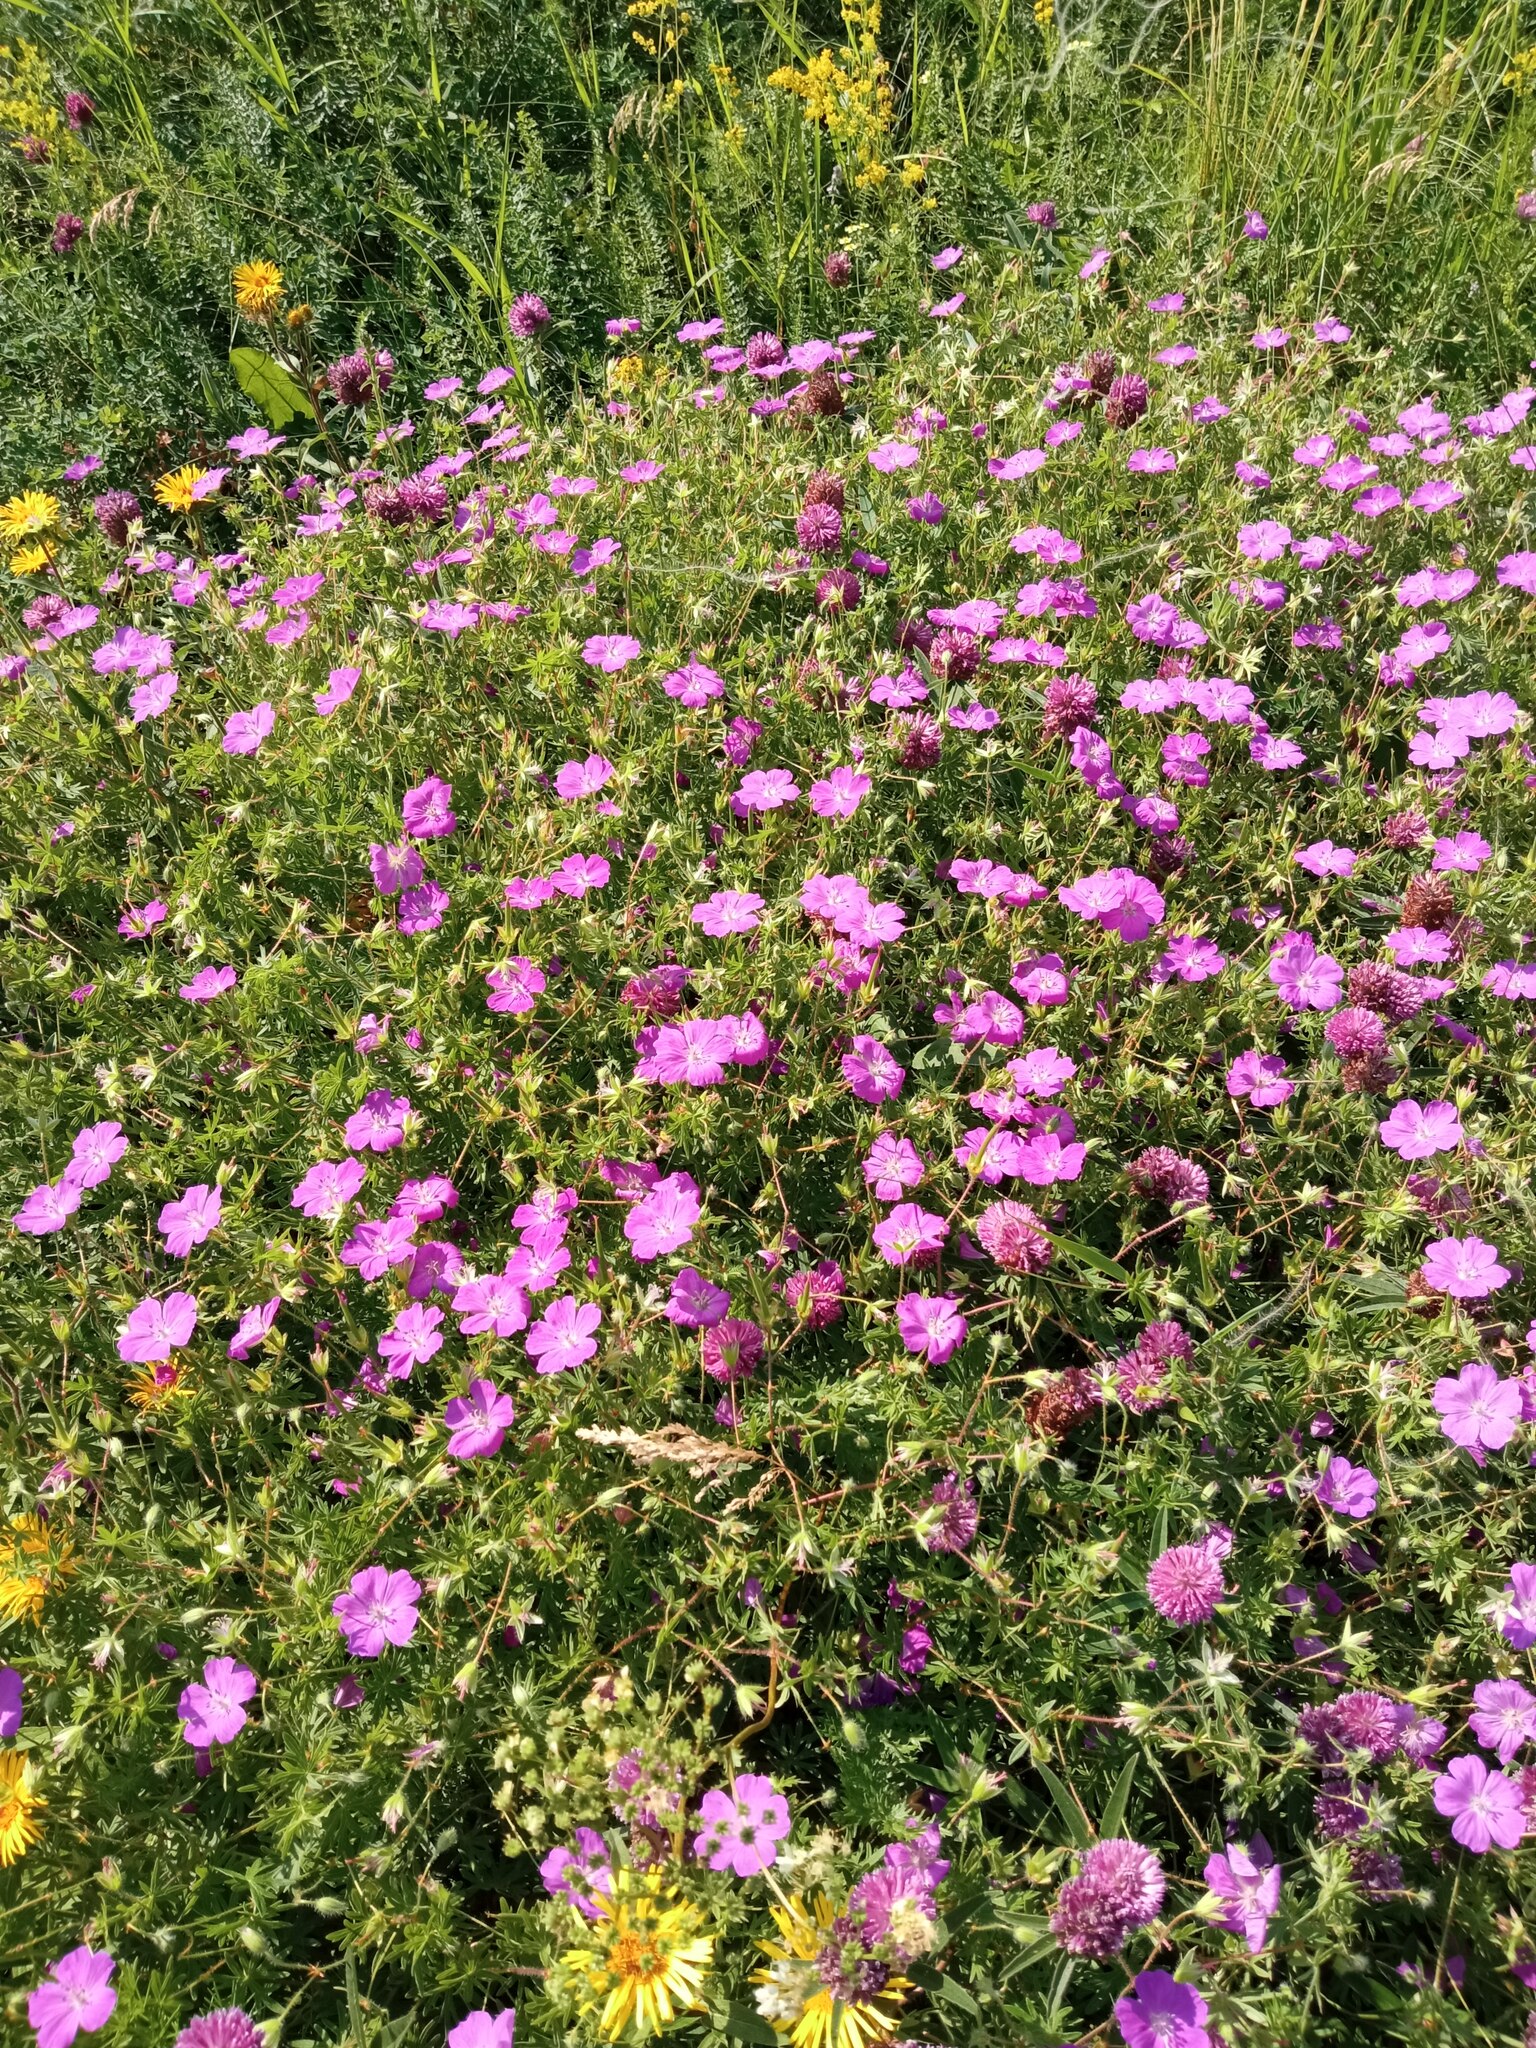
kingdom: Plantae
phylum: Tracheophyta
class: Magnoliopsida
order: Geraniales
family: Geraniaceae
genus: Geranium
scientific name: Geranium sanguineum
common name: Bloody crane's-bill
